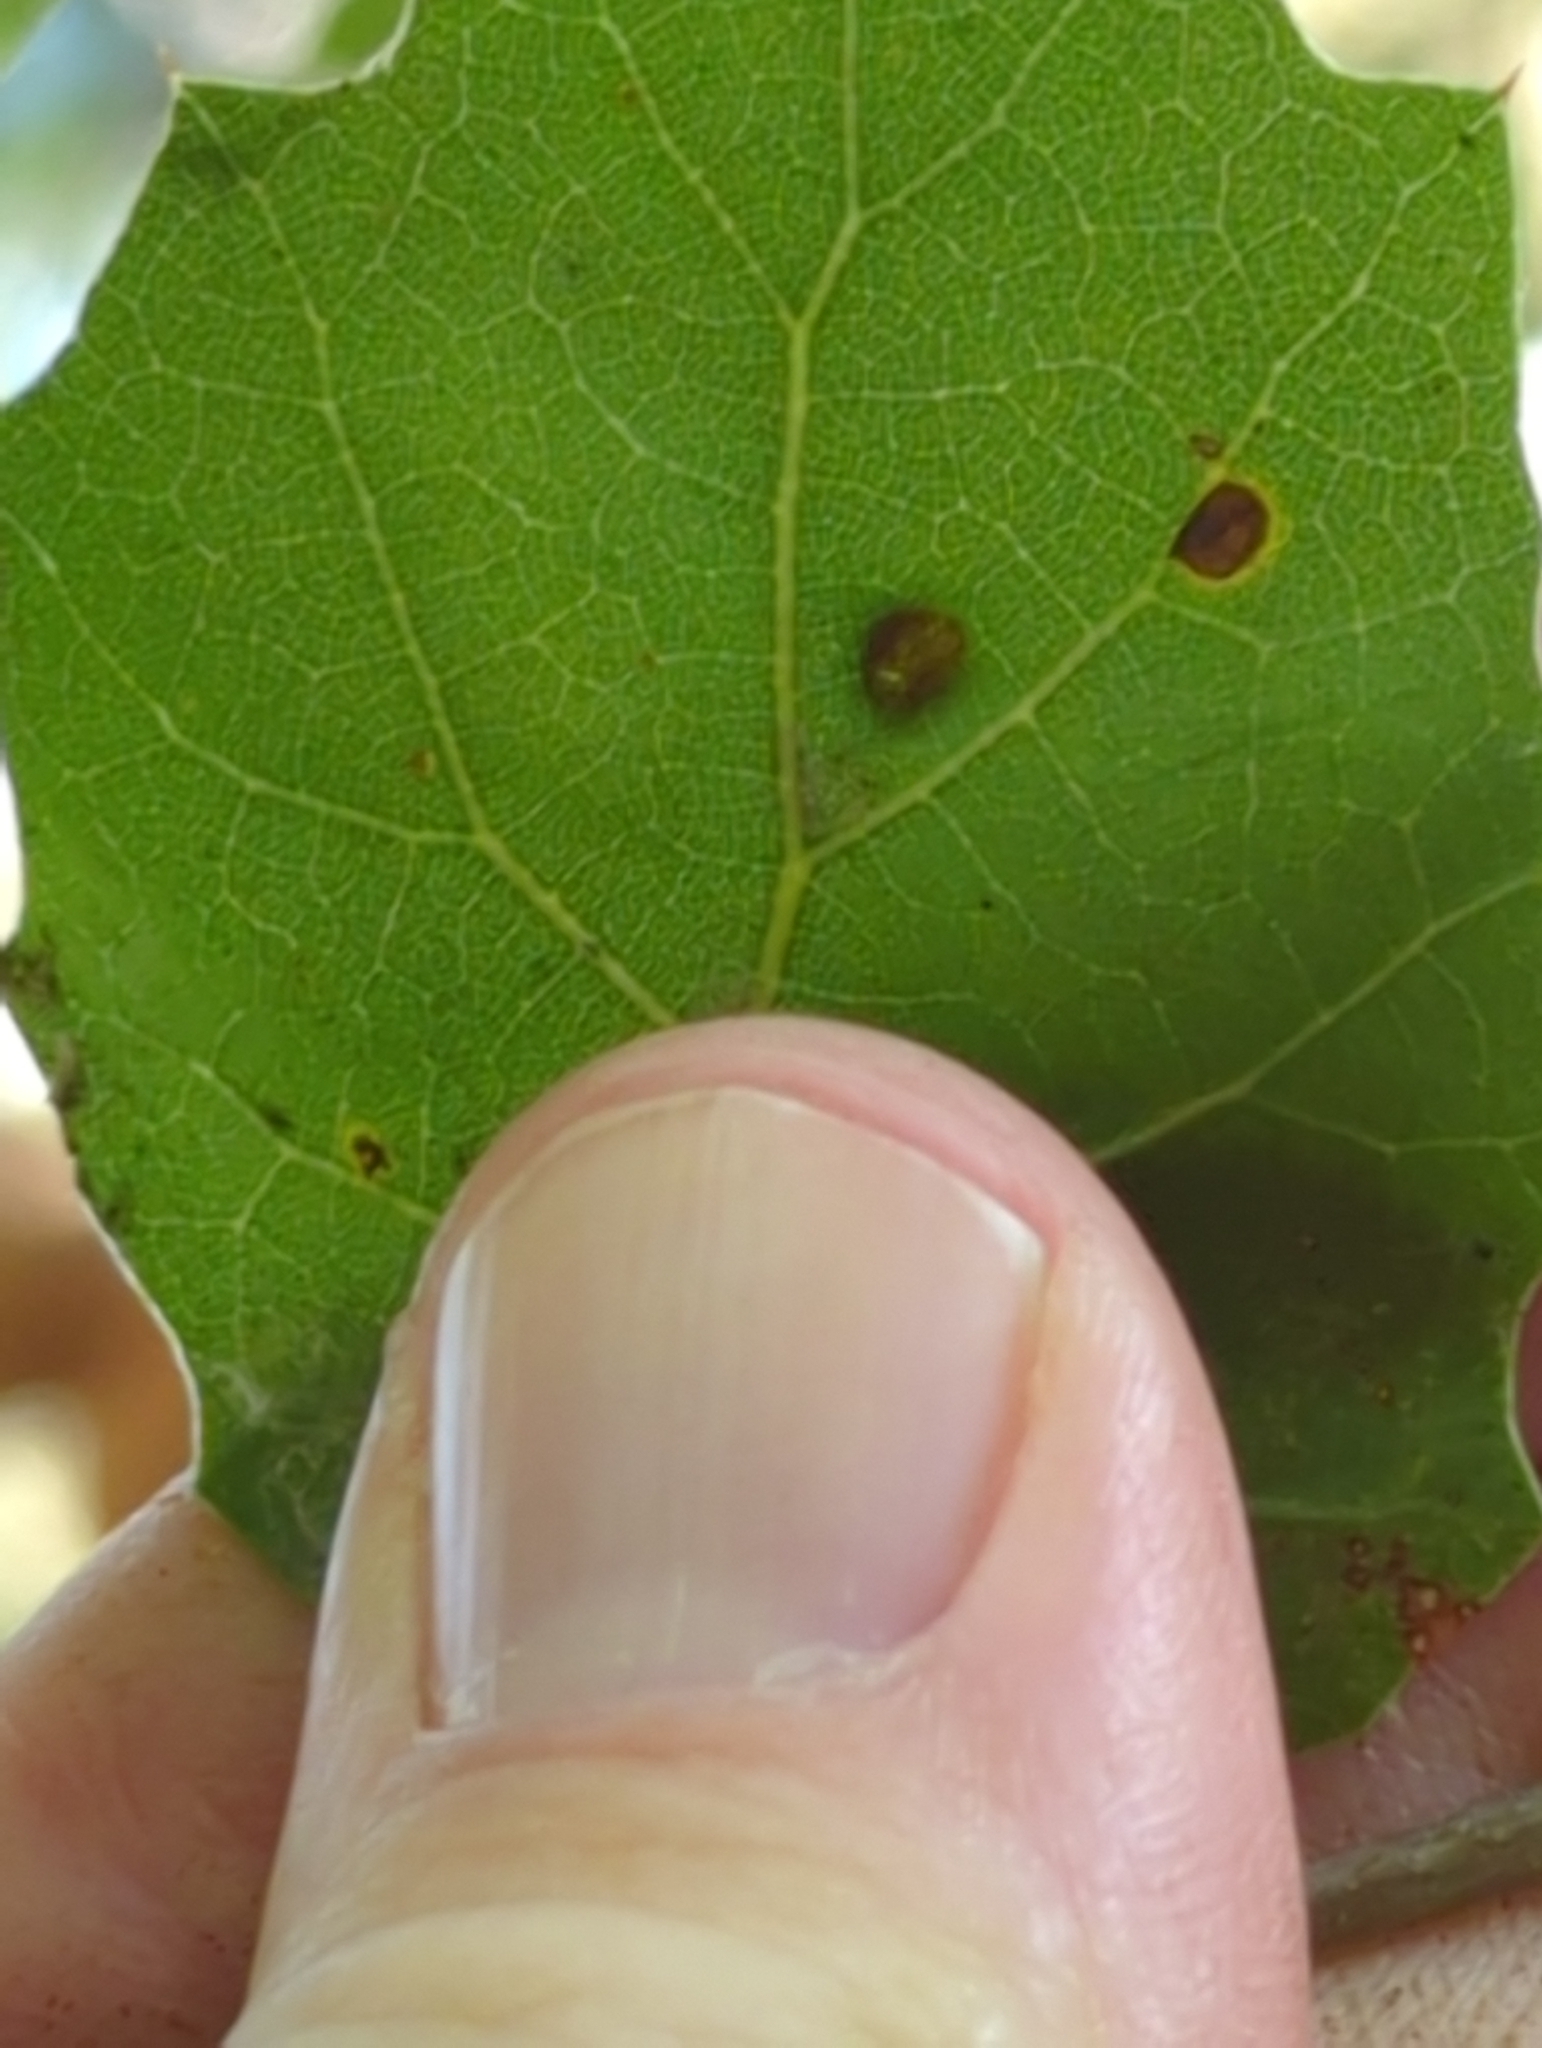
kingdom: Animalia
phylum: Arthropoda
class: Arachnida
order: Trombidiformes
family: Eriophyidae
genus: Aceria
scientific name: Aceria
